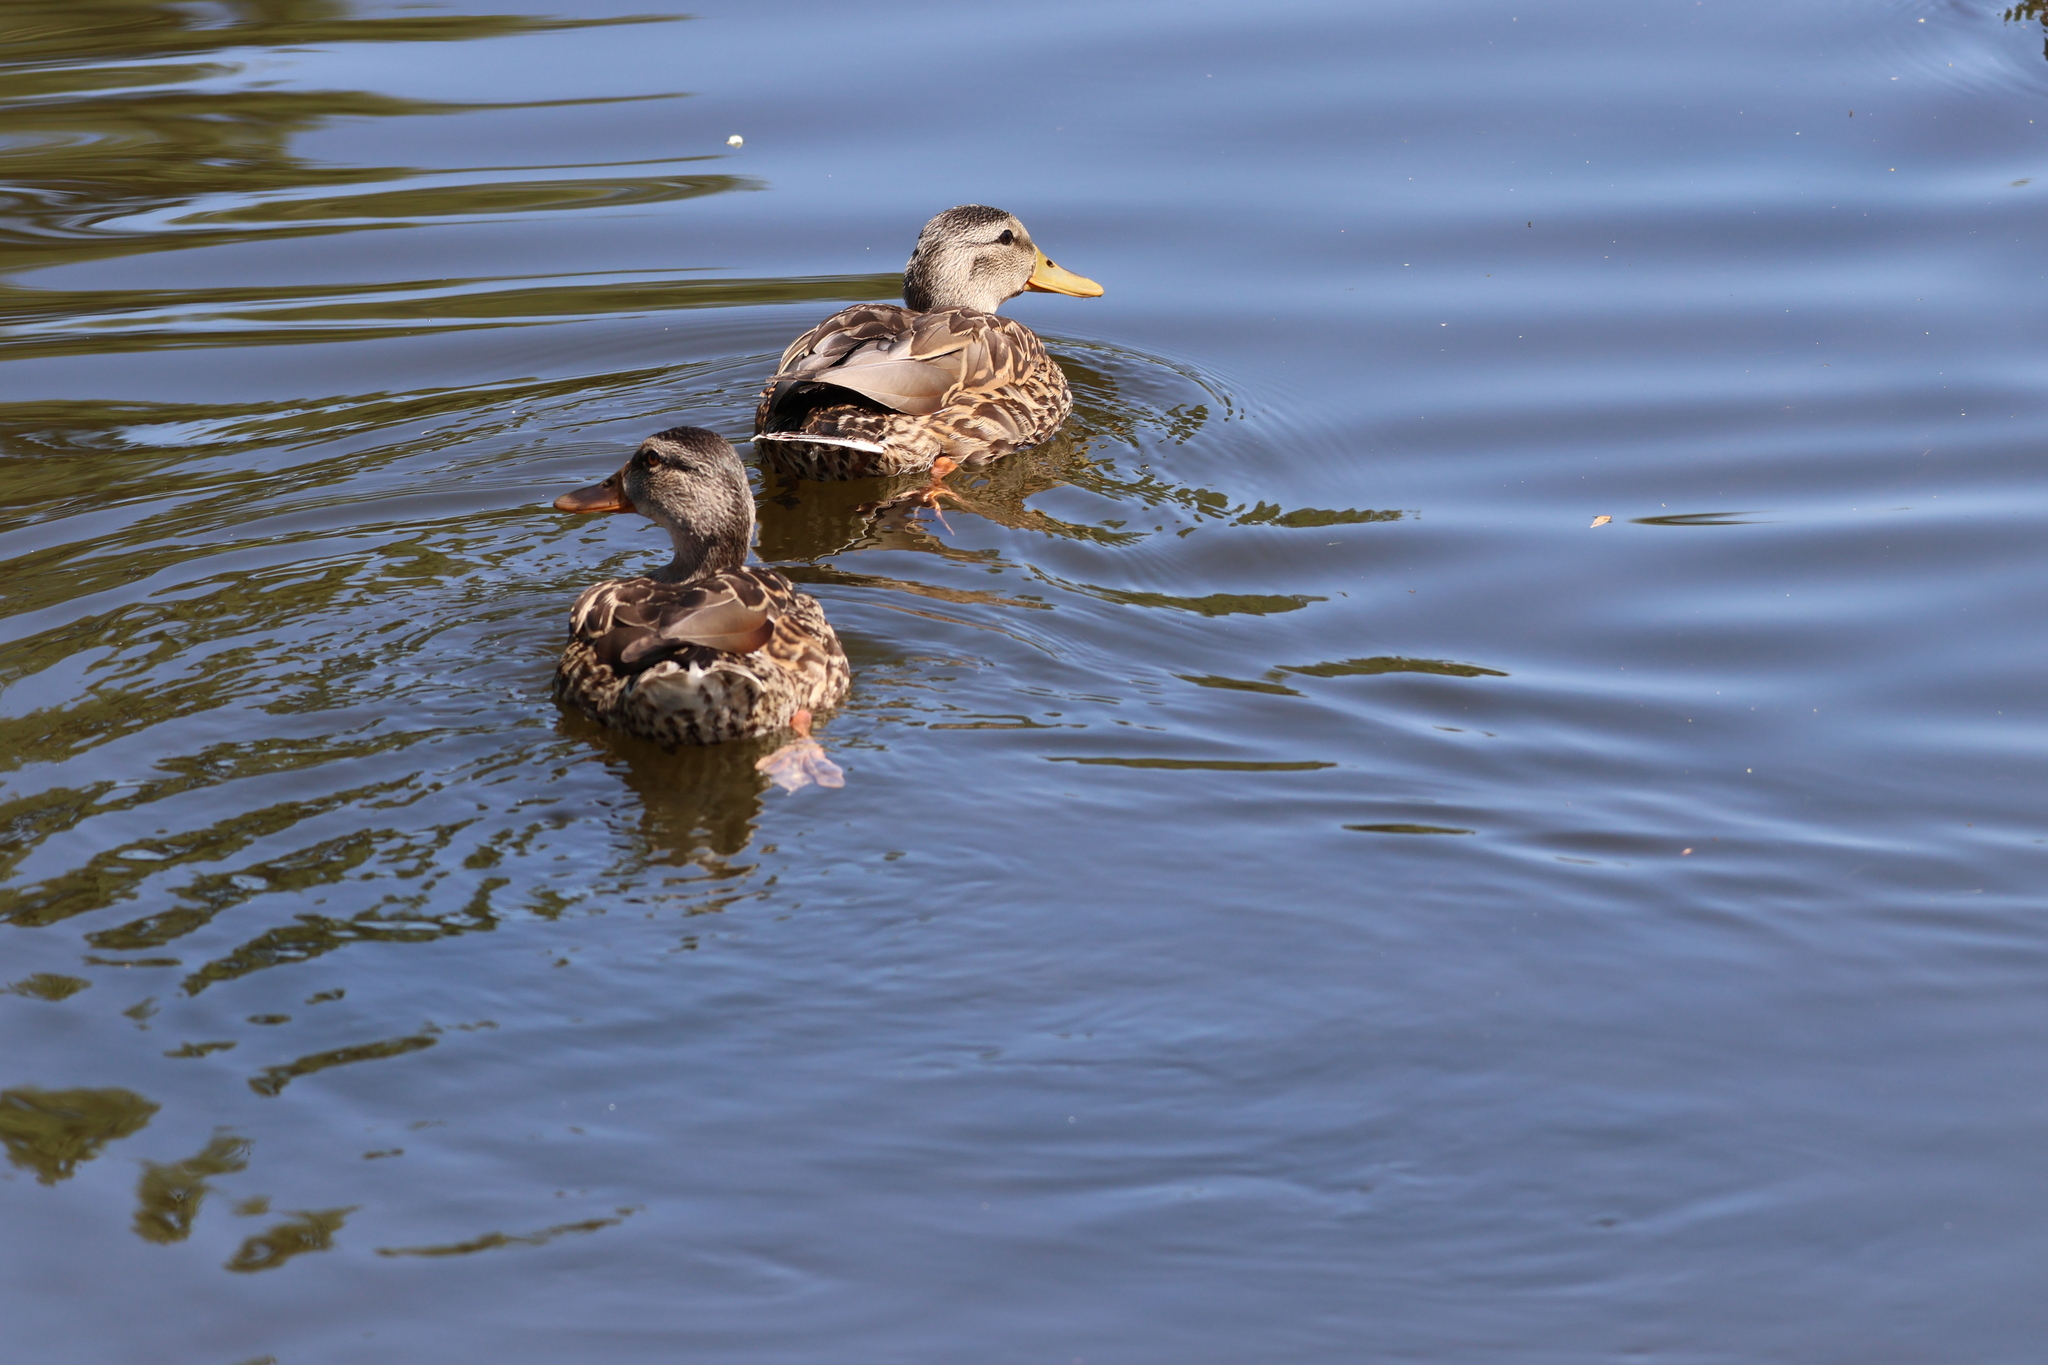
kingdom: Animalia
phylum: Chordata
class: Aves
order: Anseriformes
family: Anatidae
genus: Anas
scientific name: Anas platyrhynchos
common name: Mallard
